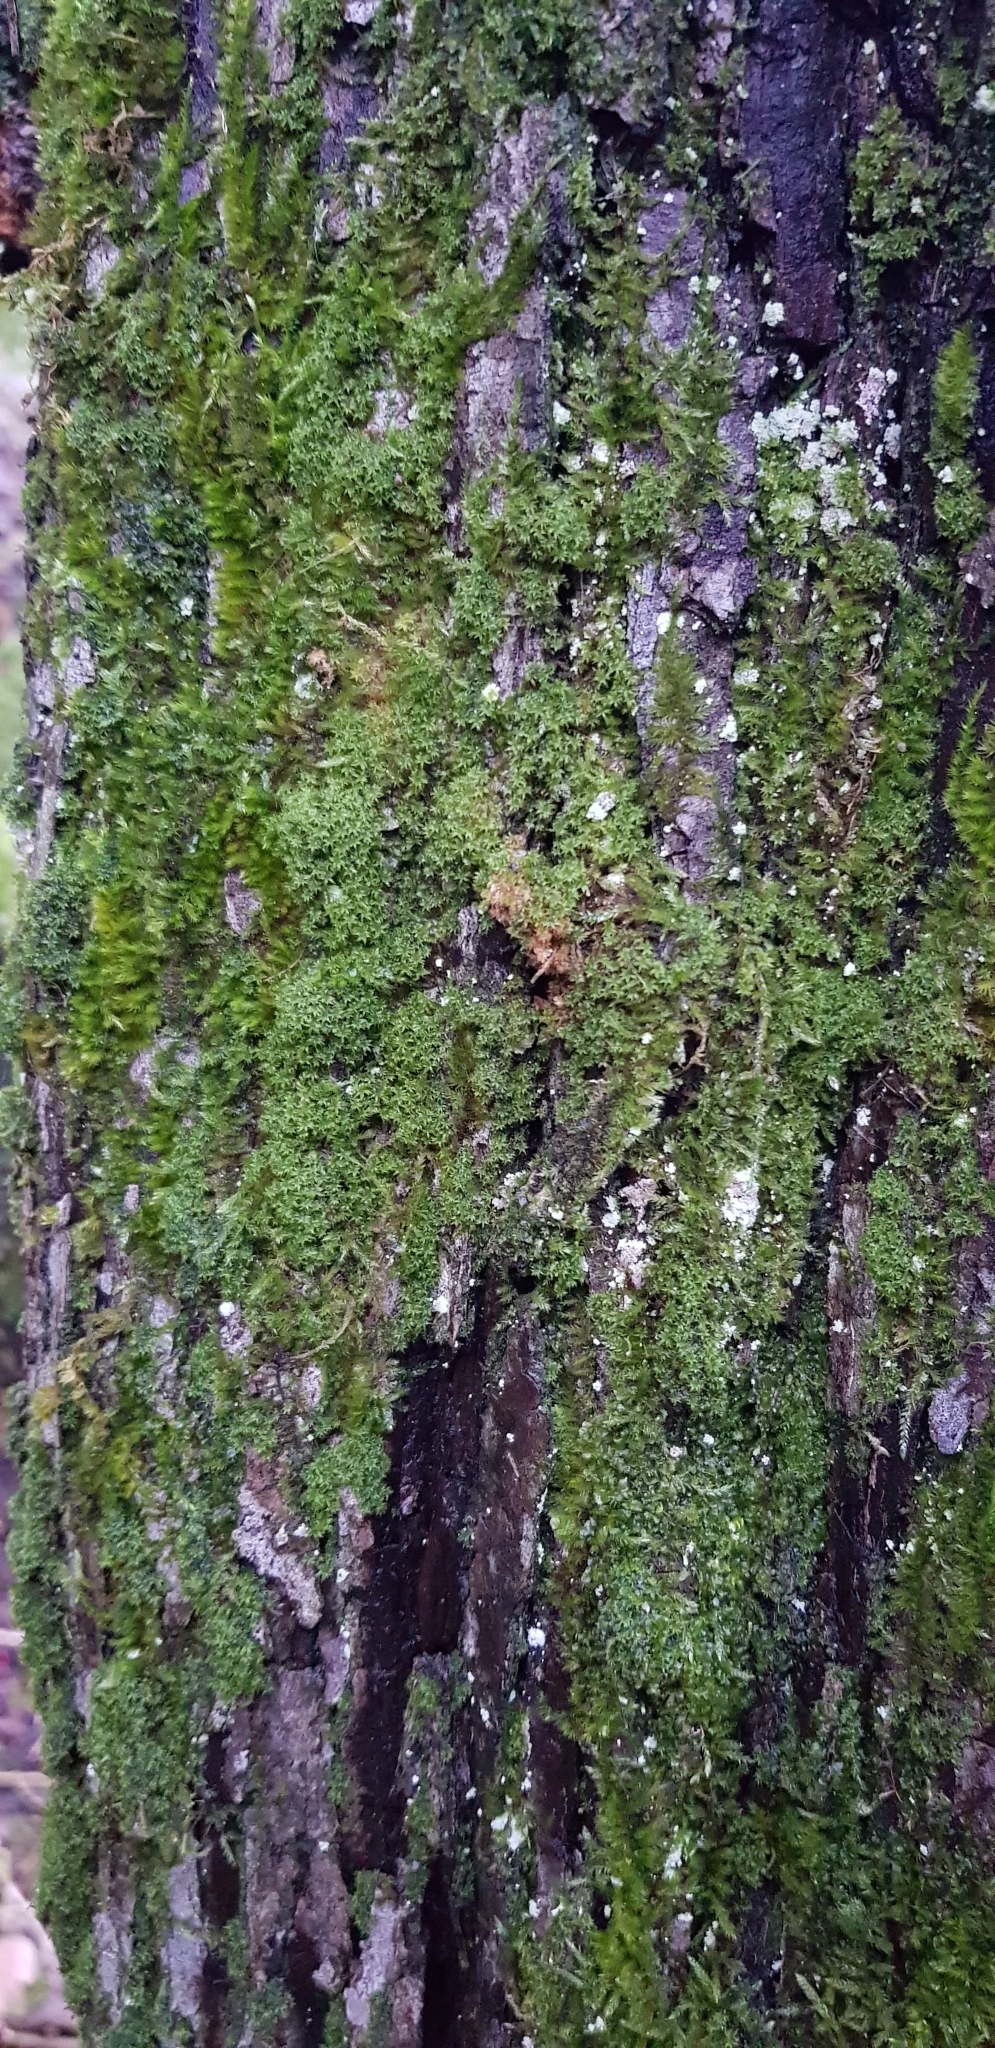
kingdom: Plantae
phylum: Bryophyta
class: Bryopsida
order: Orthotrichales
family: Orthotrichaceae
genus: Zygodon
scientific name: Zygodon viridissimus
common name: Green yoke moss
